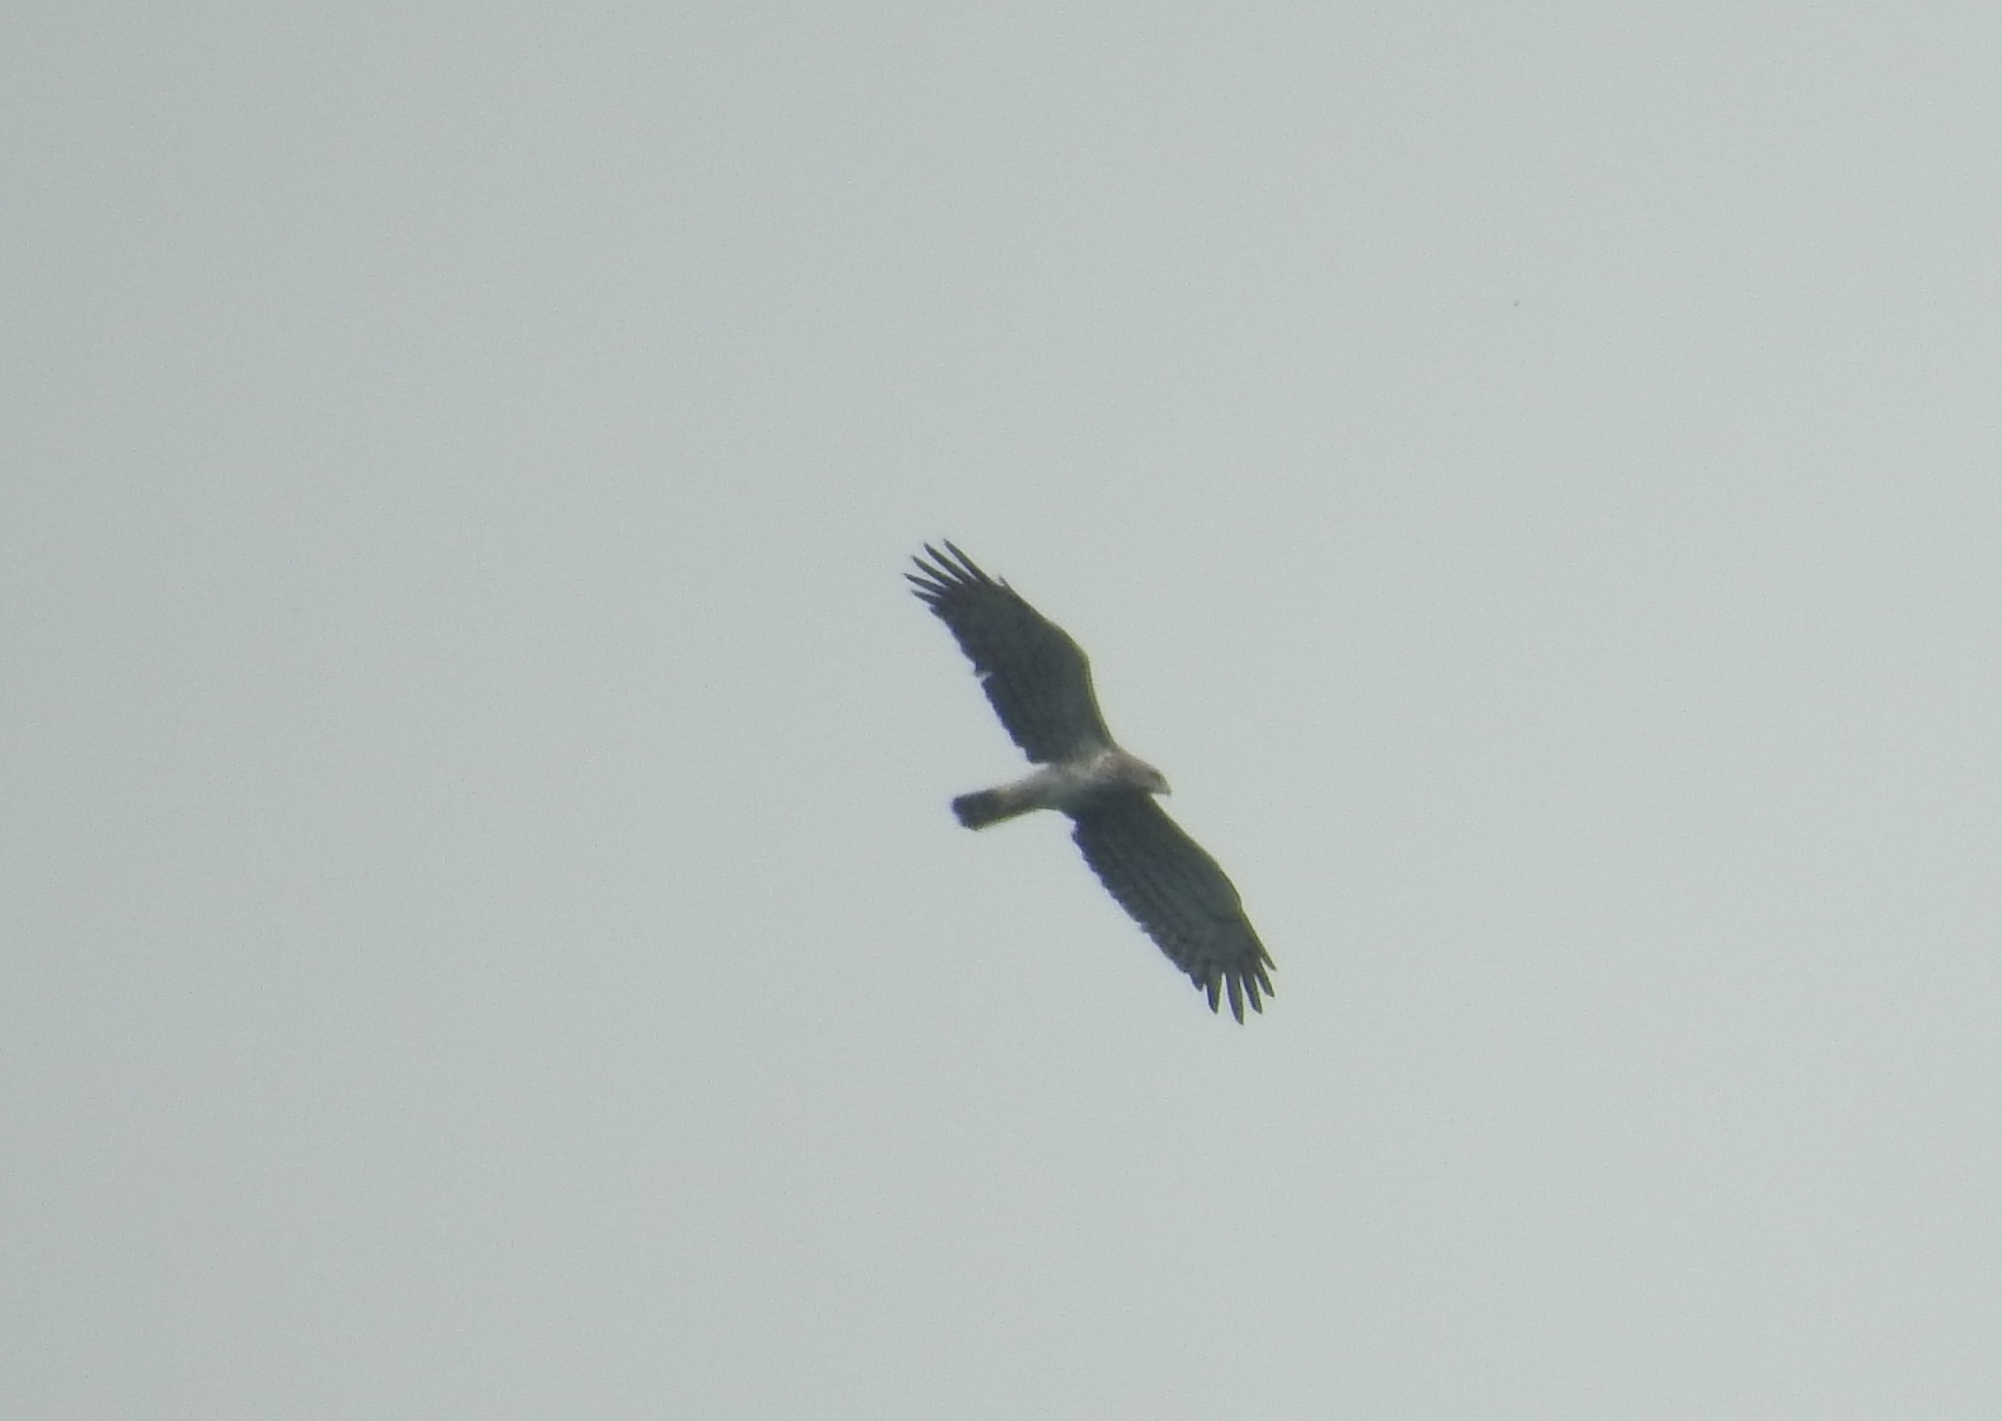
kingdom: Animalia
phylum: Chordata
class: Aves
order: Accipitriformes
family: Accipitridae
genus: Circaetus
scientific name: Circaetus gallicus
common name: Short-toed snake eagle
